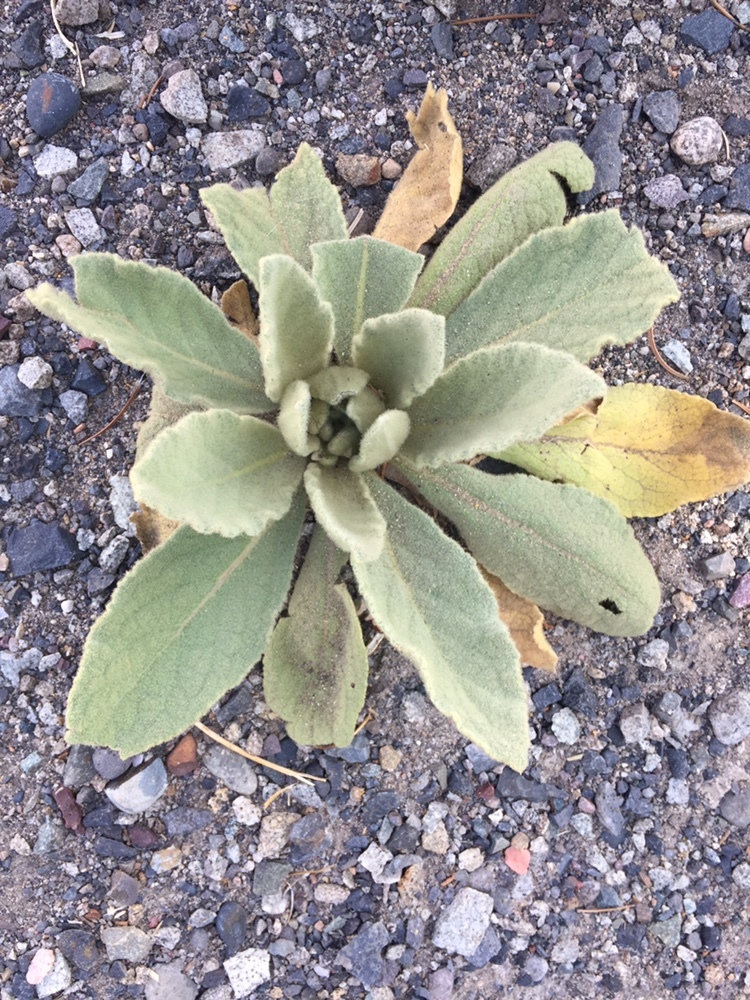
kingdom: Plantae
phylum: Tracheophyta
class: Magnoliopsida
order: Lamiales
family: Scrophulariaceae
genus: Verbascum
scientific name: Verbascum thapsus
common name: Common mullein
